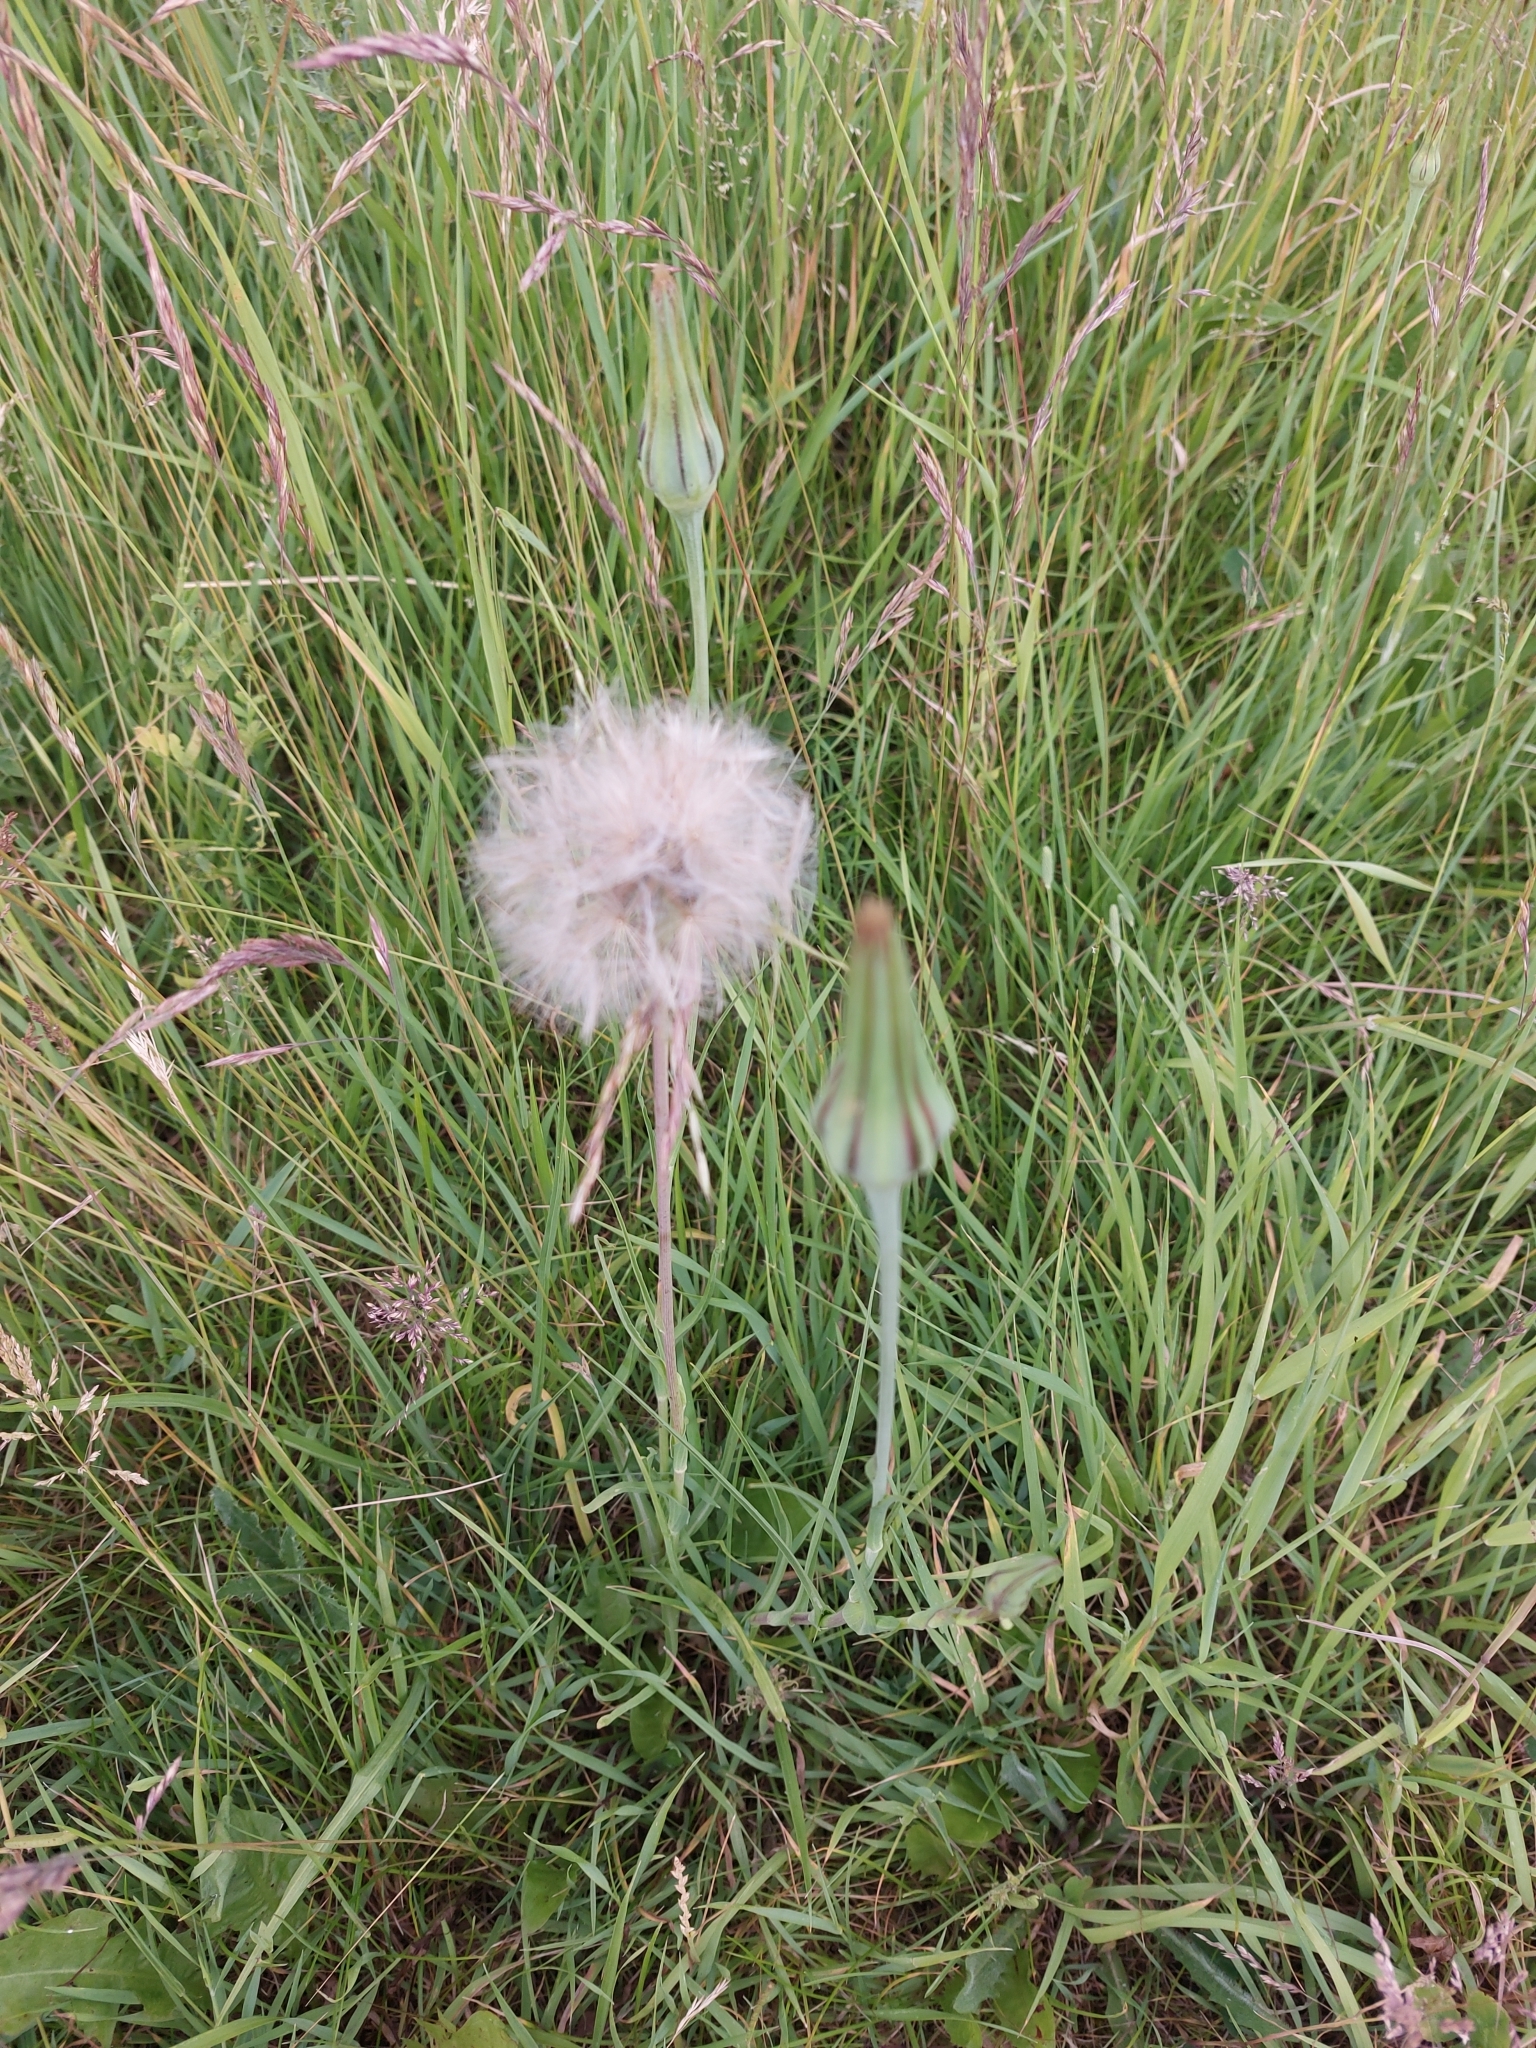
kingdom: Plantae
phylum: Tracheophyta
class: Magnoliopsida
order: Asterales
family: Asteraceae
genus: Tragopogon
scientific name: Tragopogon pratensis
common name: Goat's-beard
